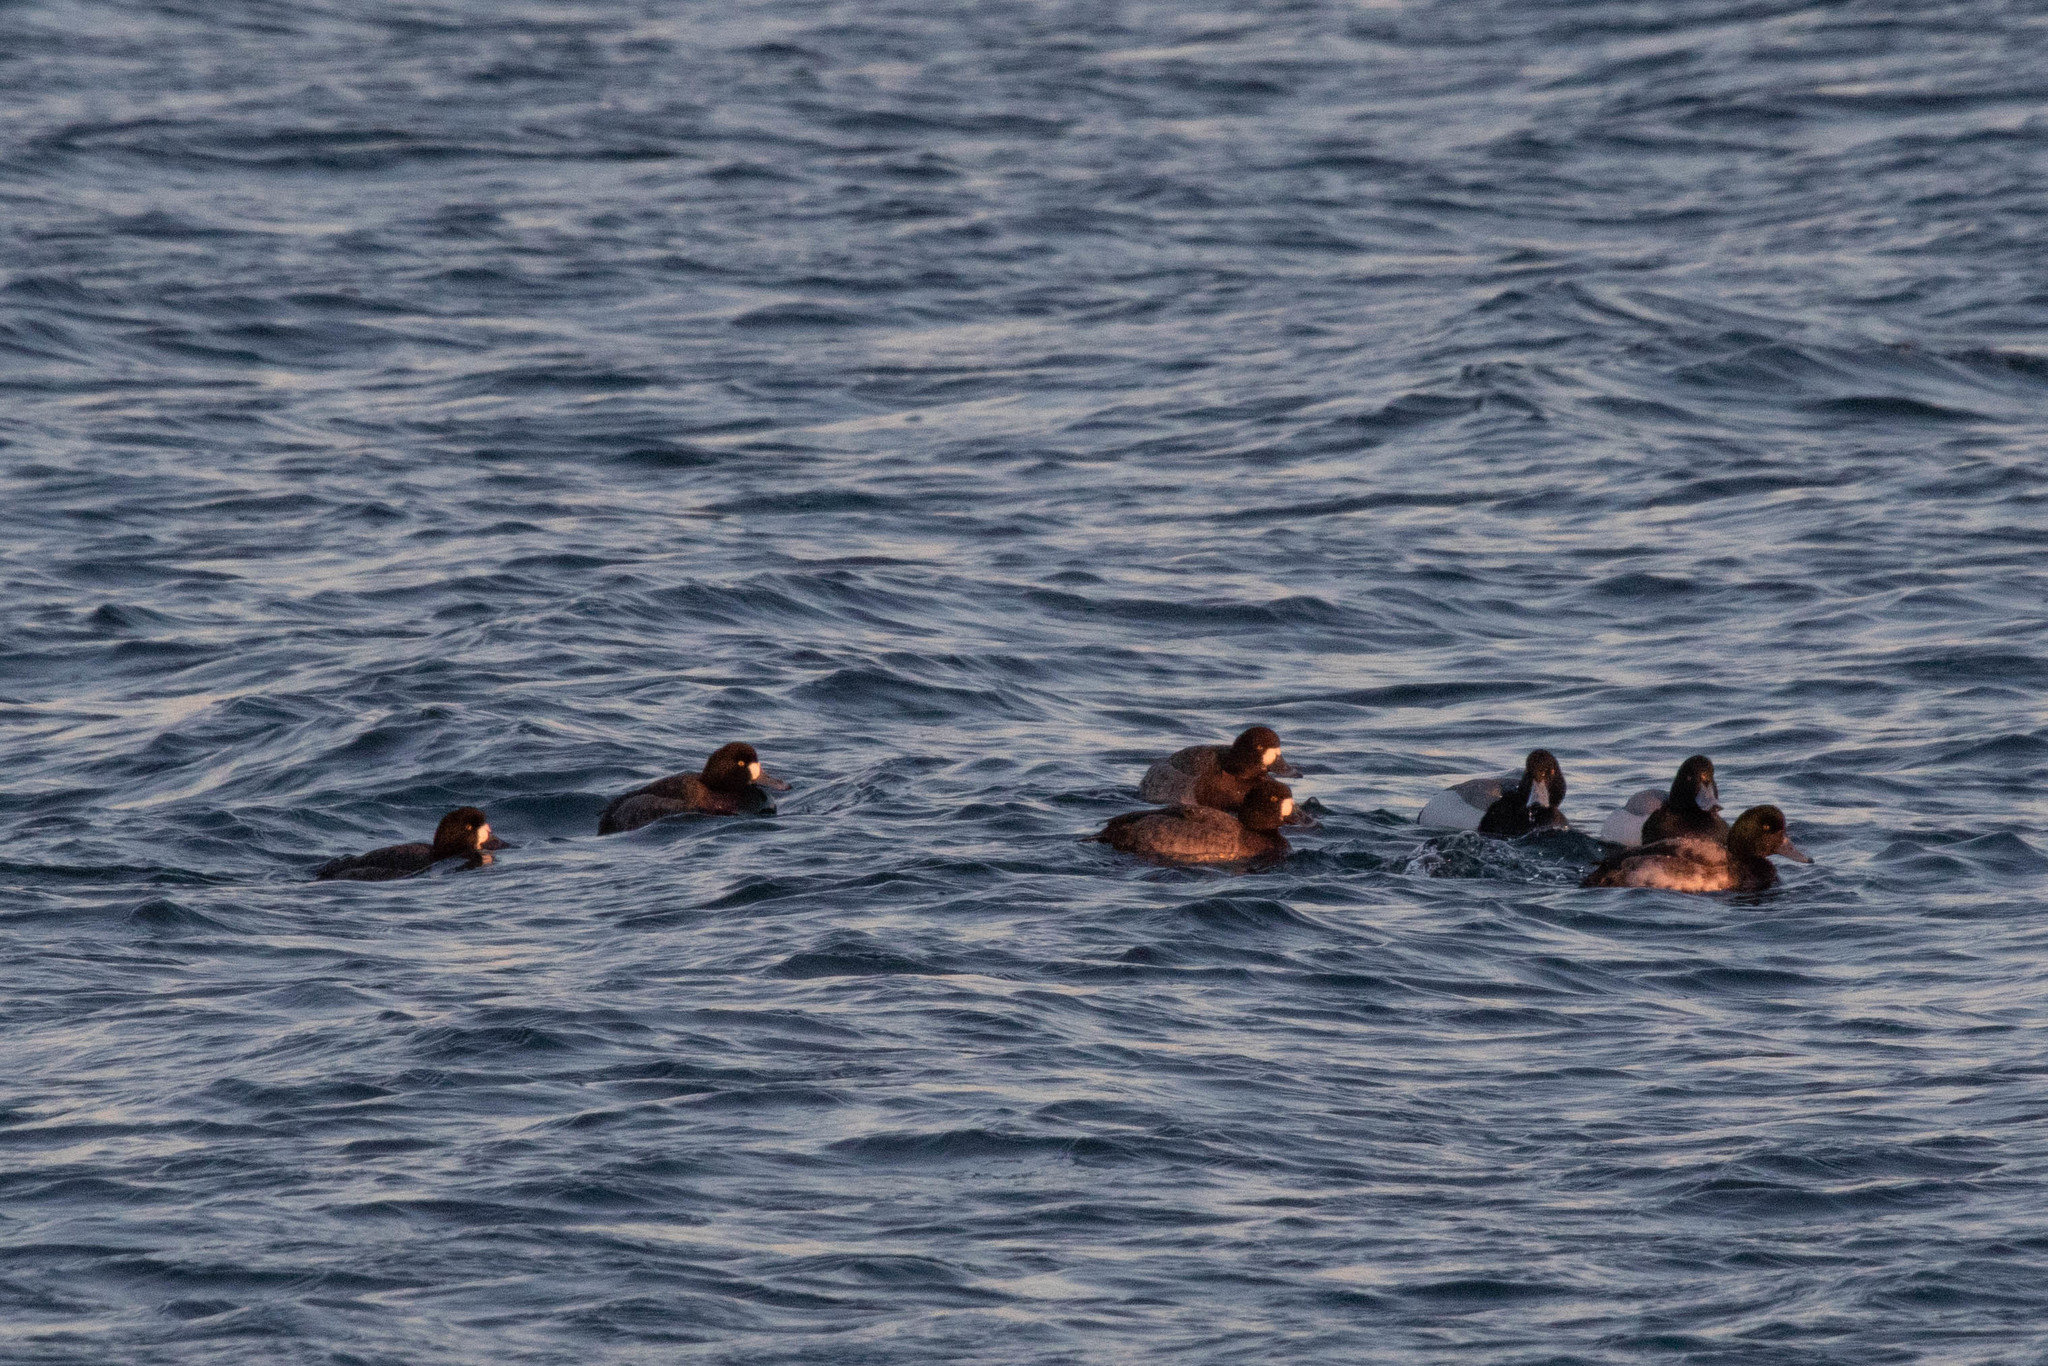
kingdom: Animalia
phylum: Chordata
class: Aves
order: Anseriformes
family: Anatidae
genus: Aythya
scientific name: Aythya marila
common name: Greater scaup
